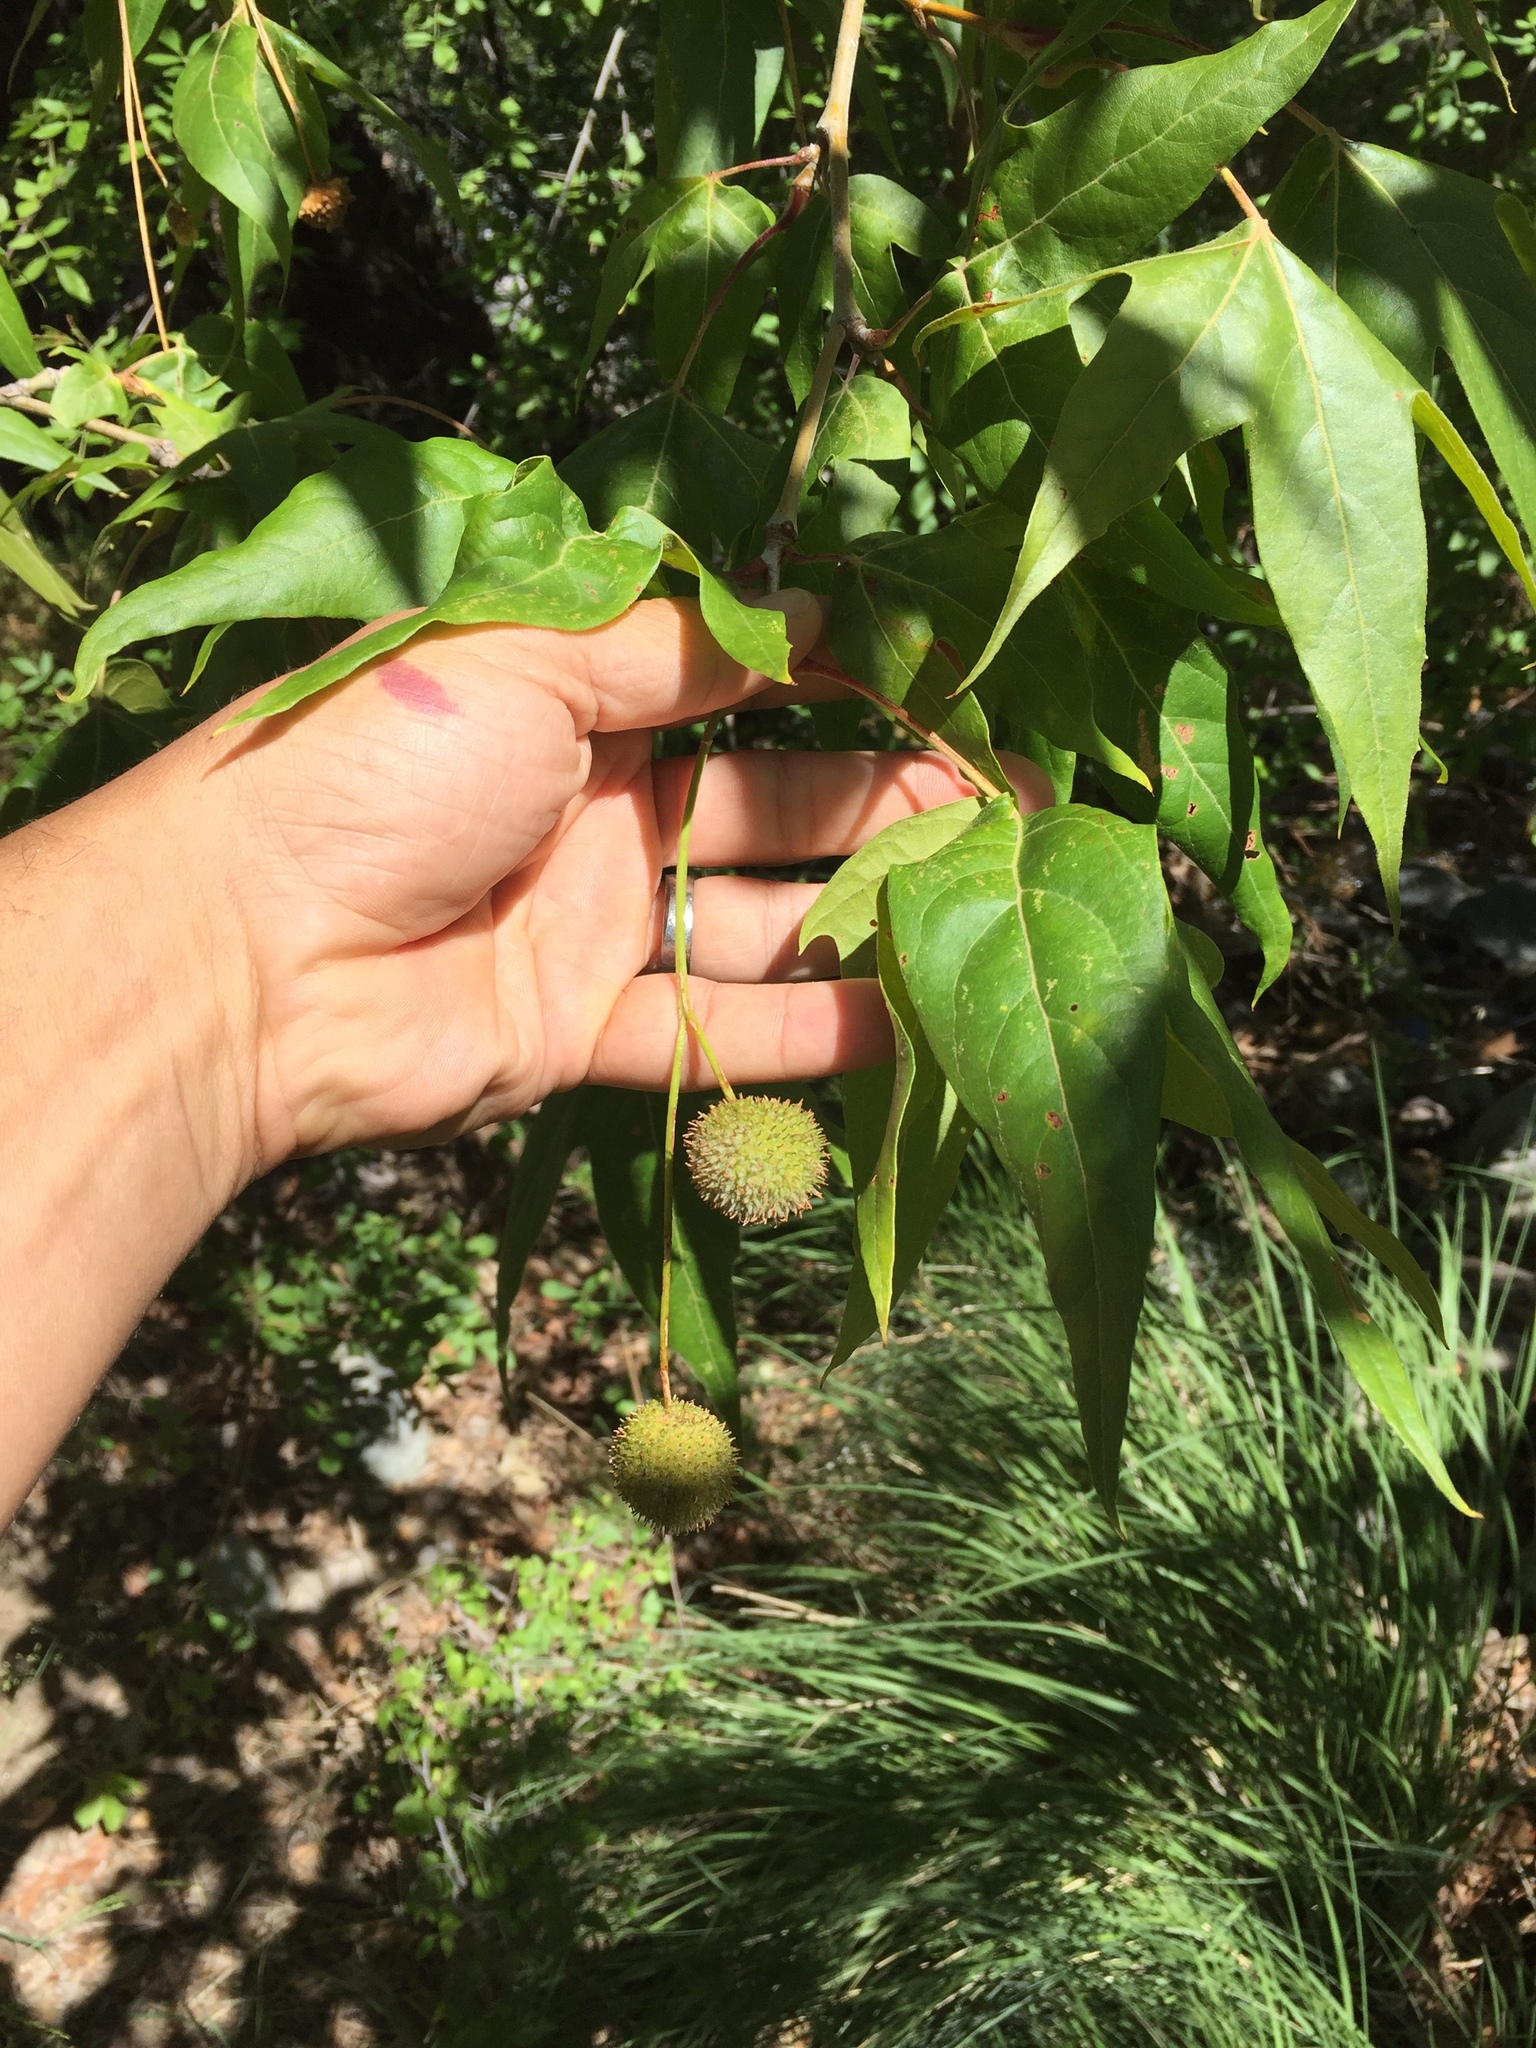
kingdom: Plantae
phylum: Tracheophyta
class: Magnoliopsida
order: Proteales
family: Platanaceae
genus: Platanus
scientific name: Platanus wrightii
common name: Arizona sycamore
